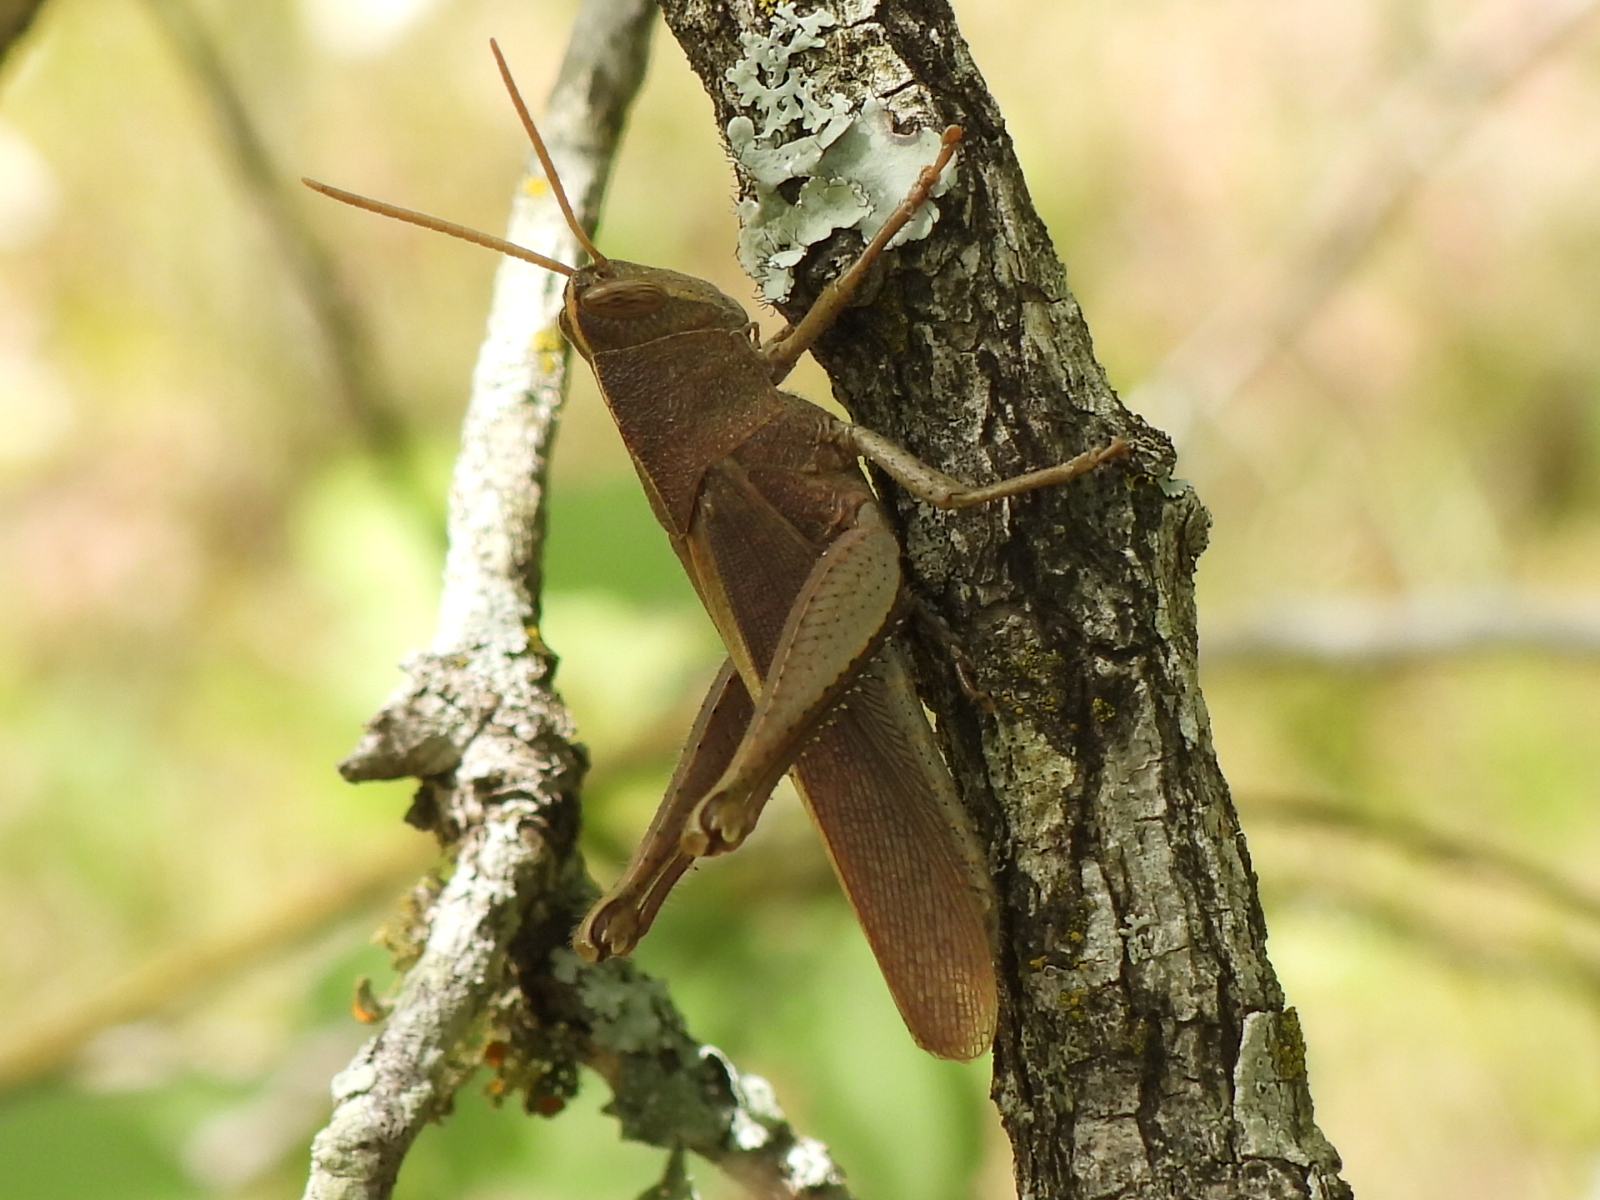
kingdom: Animalia
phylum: Arthropoda
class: Insecta
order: Orthoptera
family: Acrididae
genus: Schistocerca
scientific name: Schistocerca damnifica
